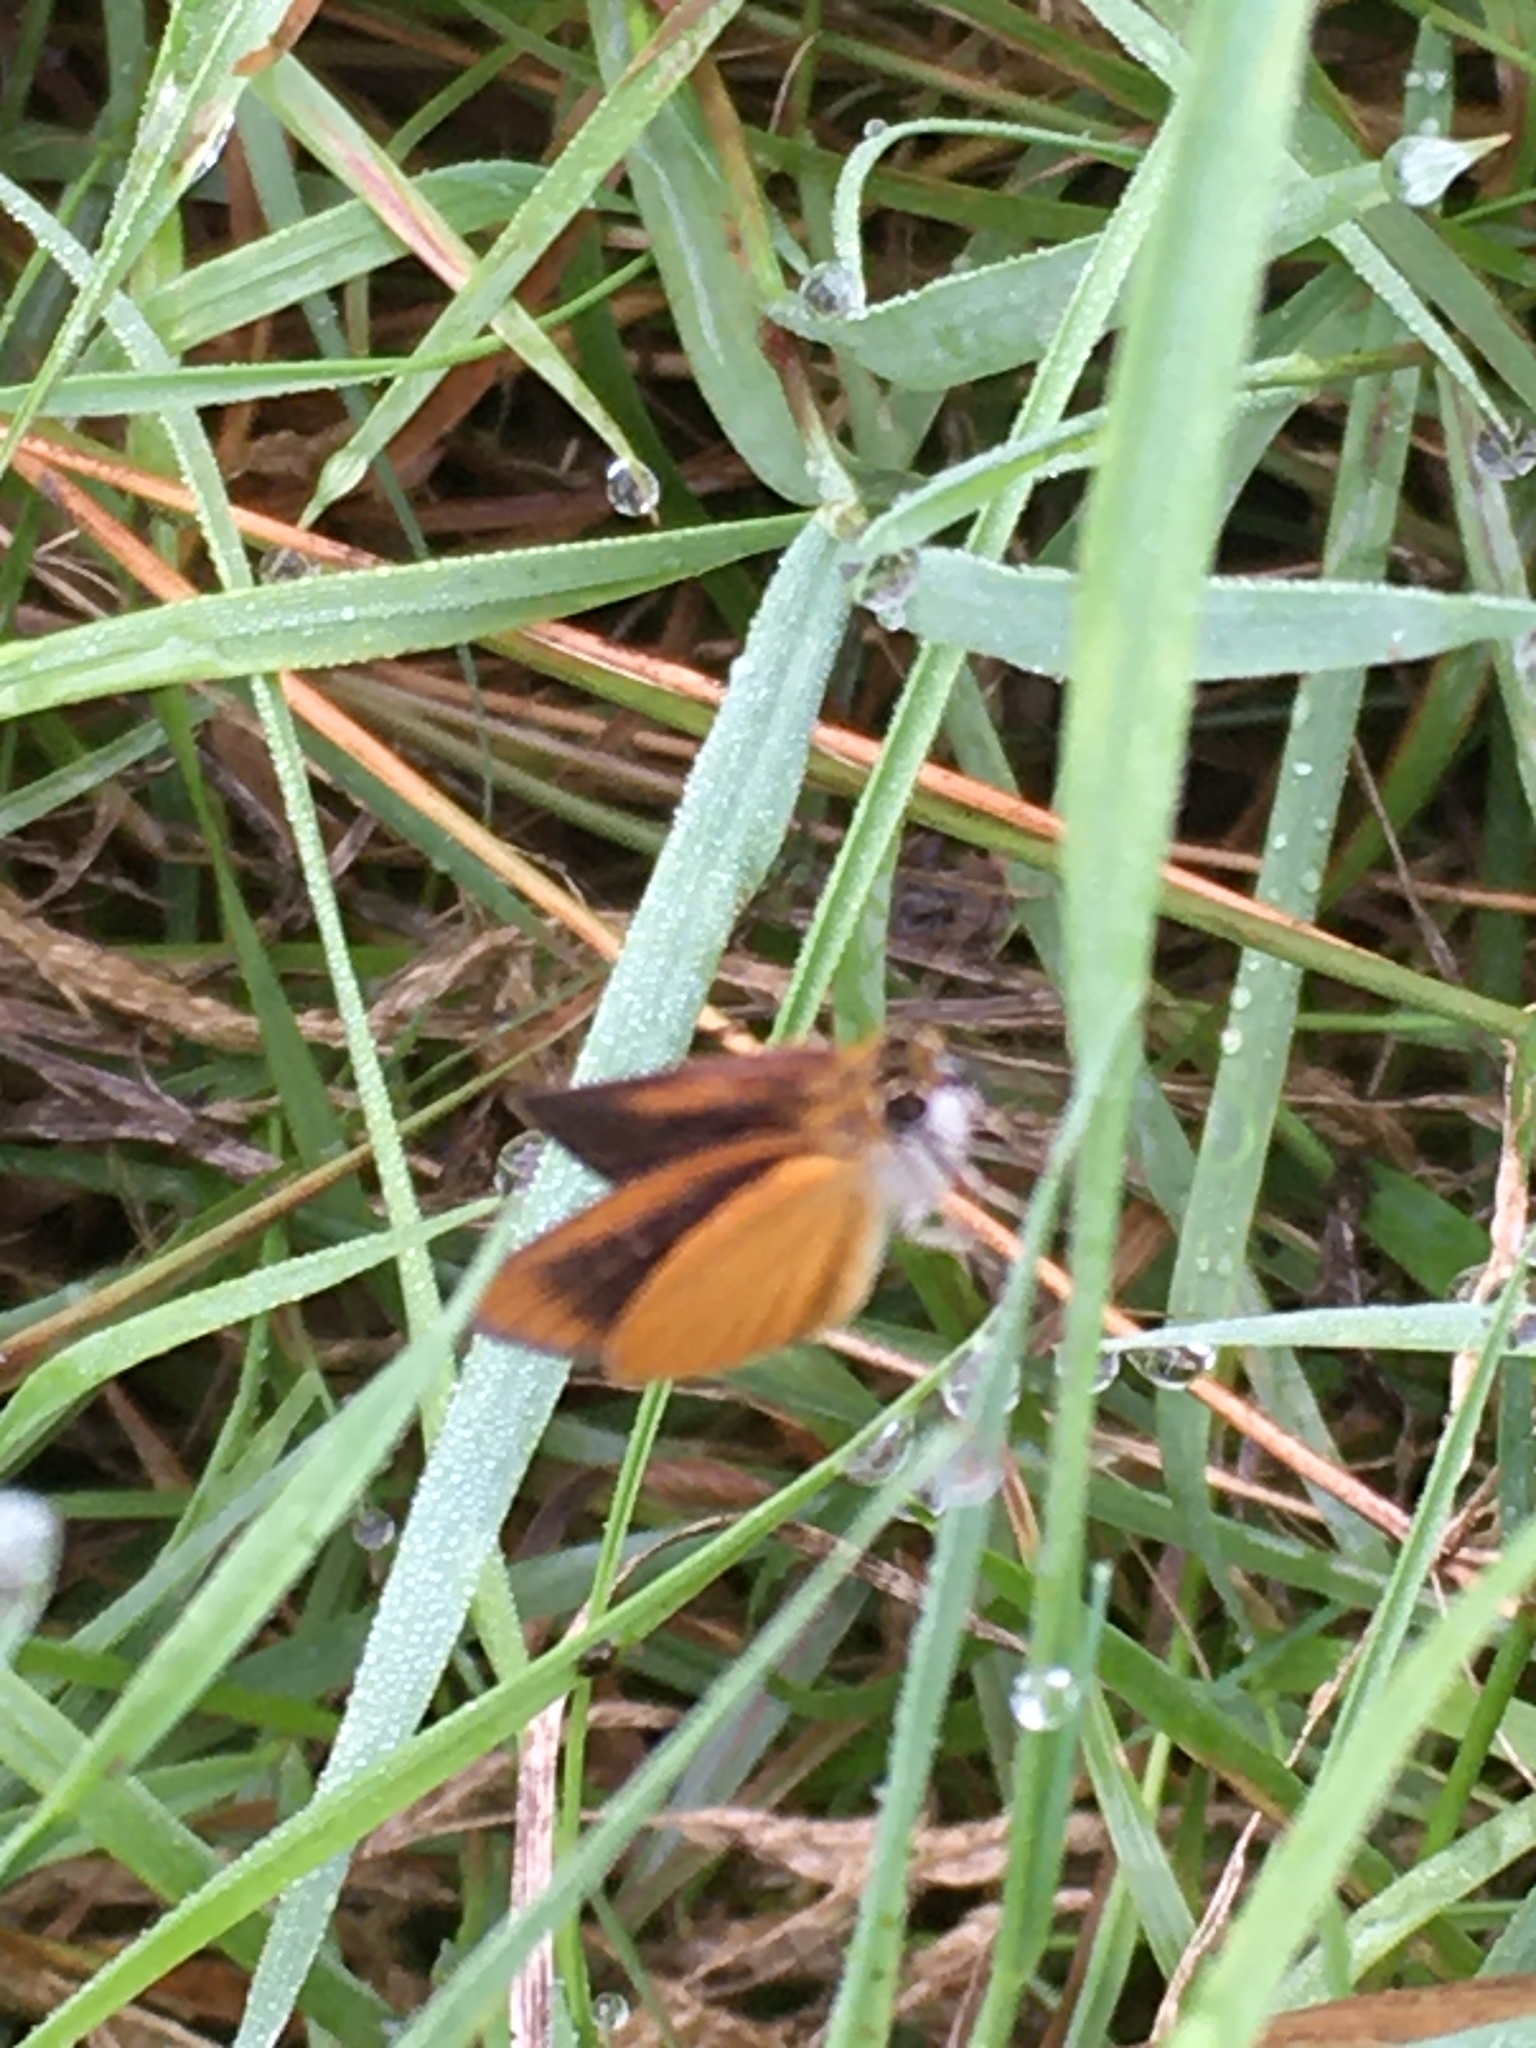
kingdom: Animalia
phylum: Arthropoda
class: Insecta
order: Lepidoptera
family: Hesperiidae
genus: Ancyloxypha
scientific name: Ancyloxypha numitor
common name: Least skipper
